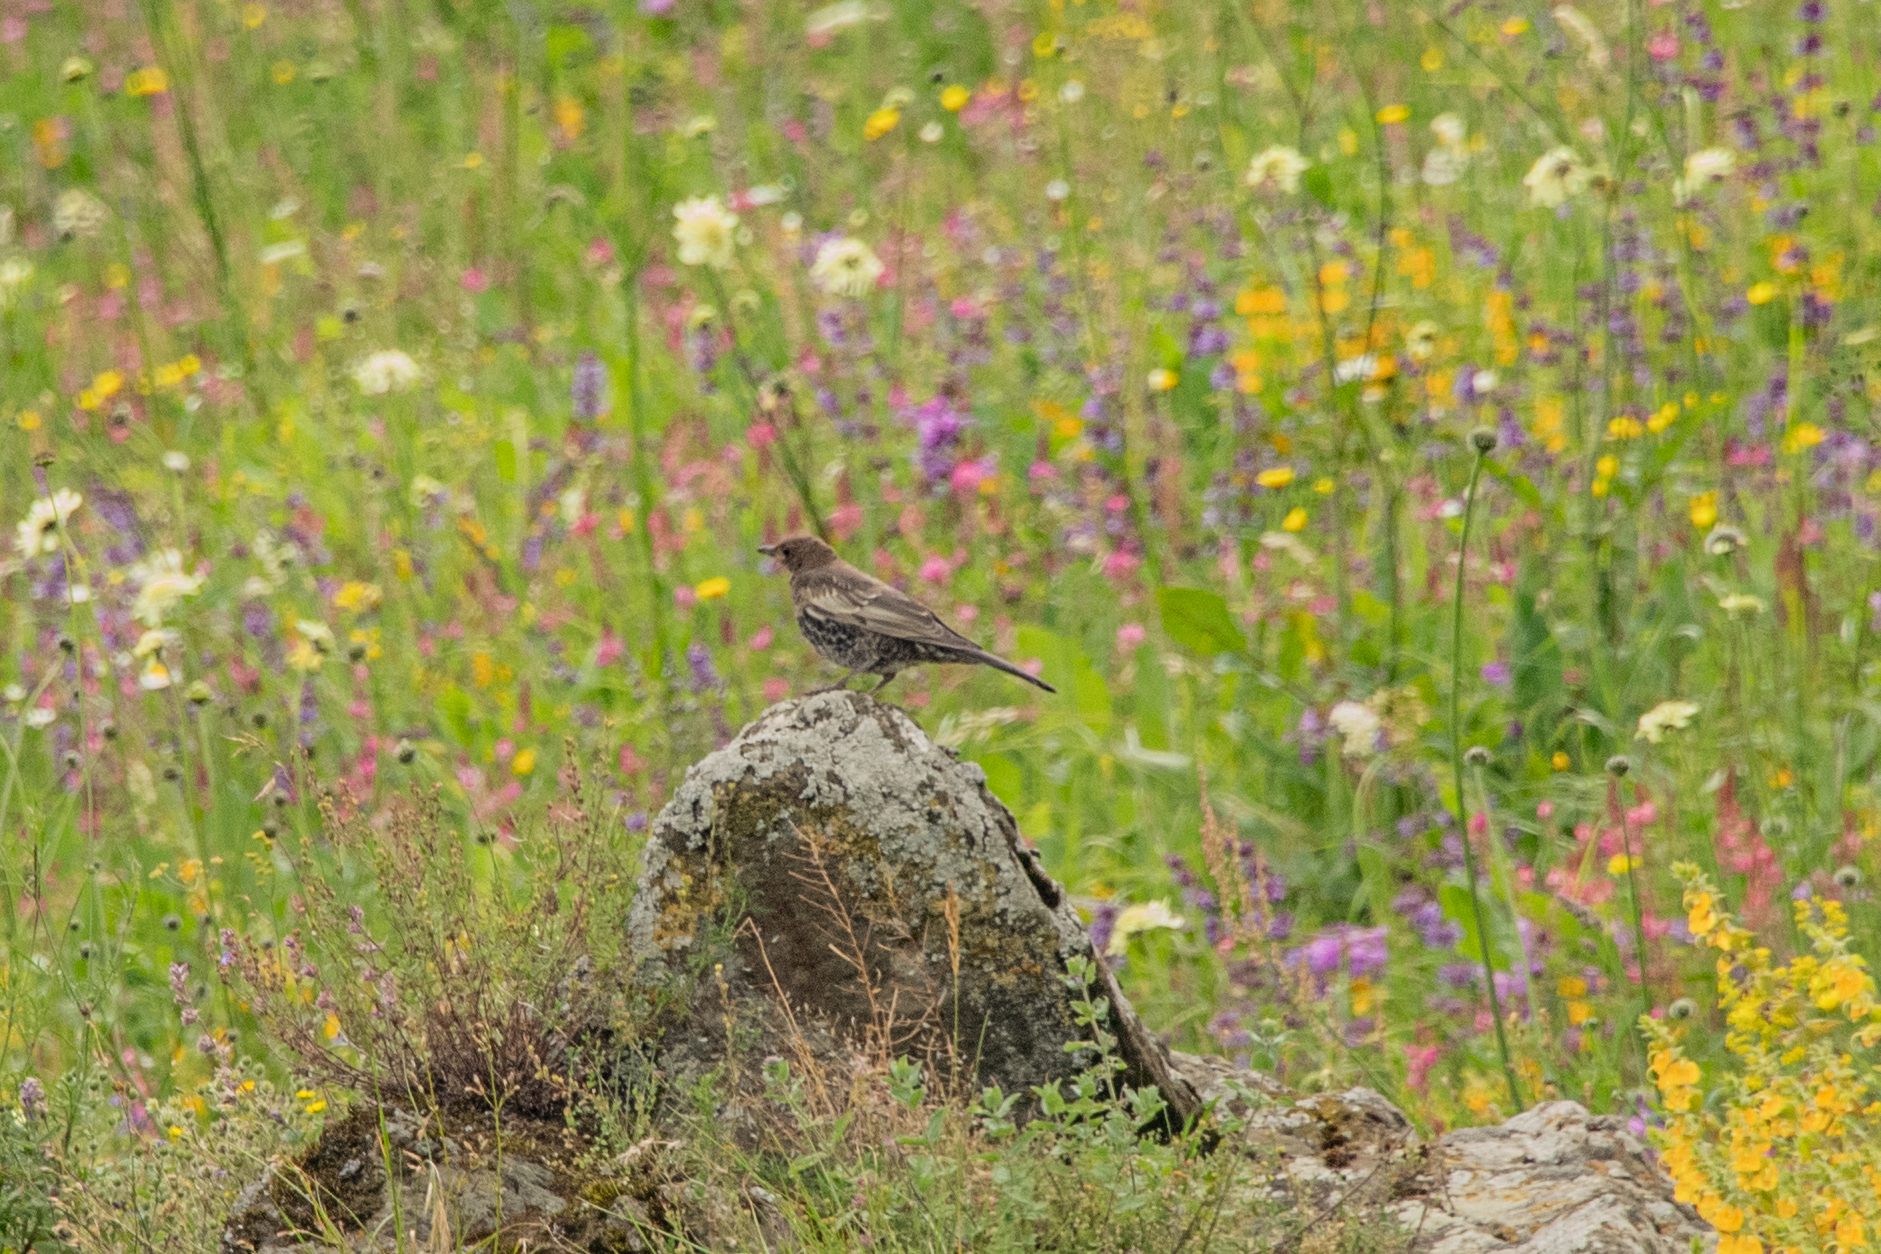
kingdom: Animalia
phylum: Chordata
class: Aves
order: Passeriformes
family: Turdidae
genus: Turdus
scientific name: Turdus torquatus
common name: Ring ouzel
